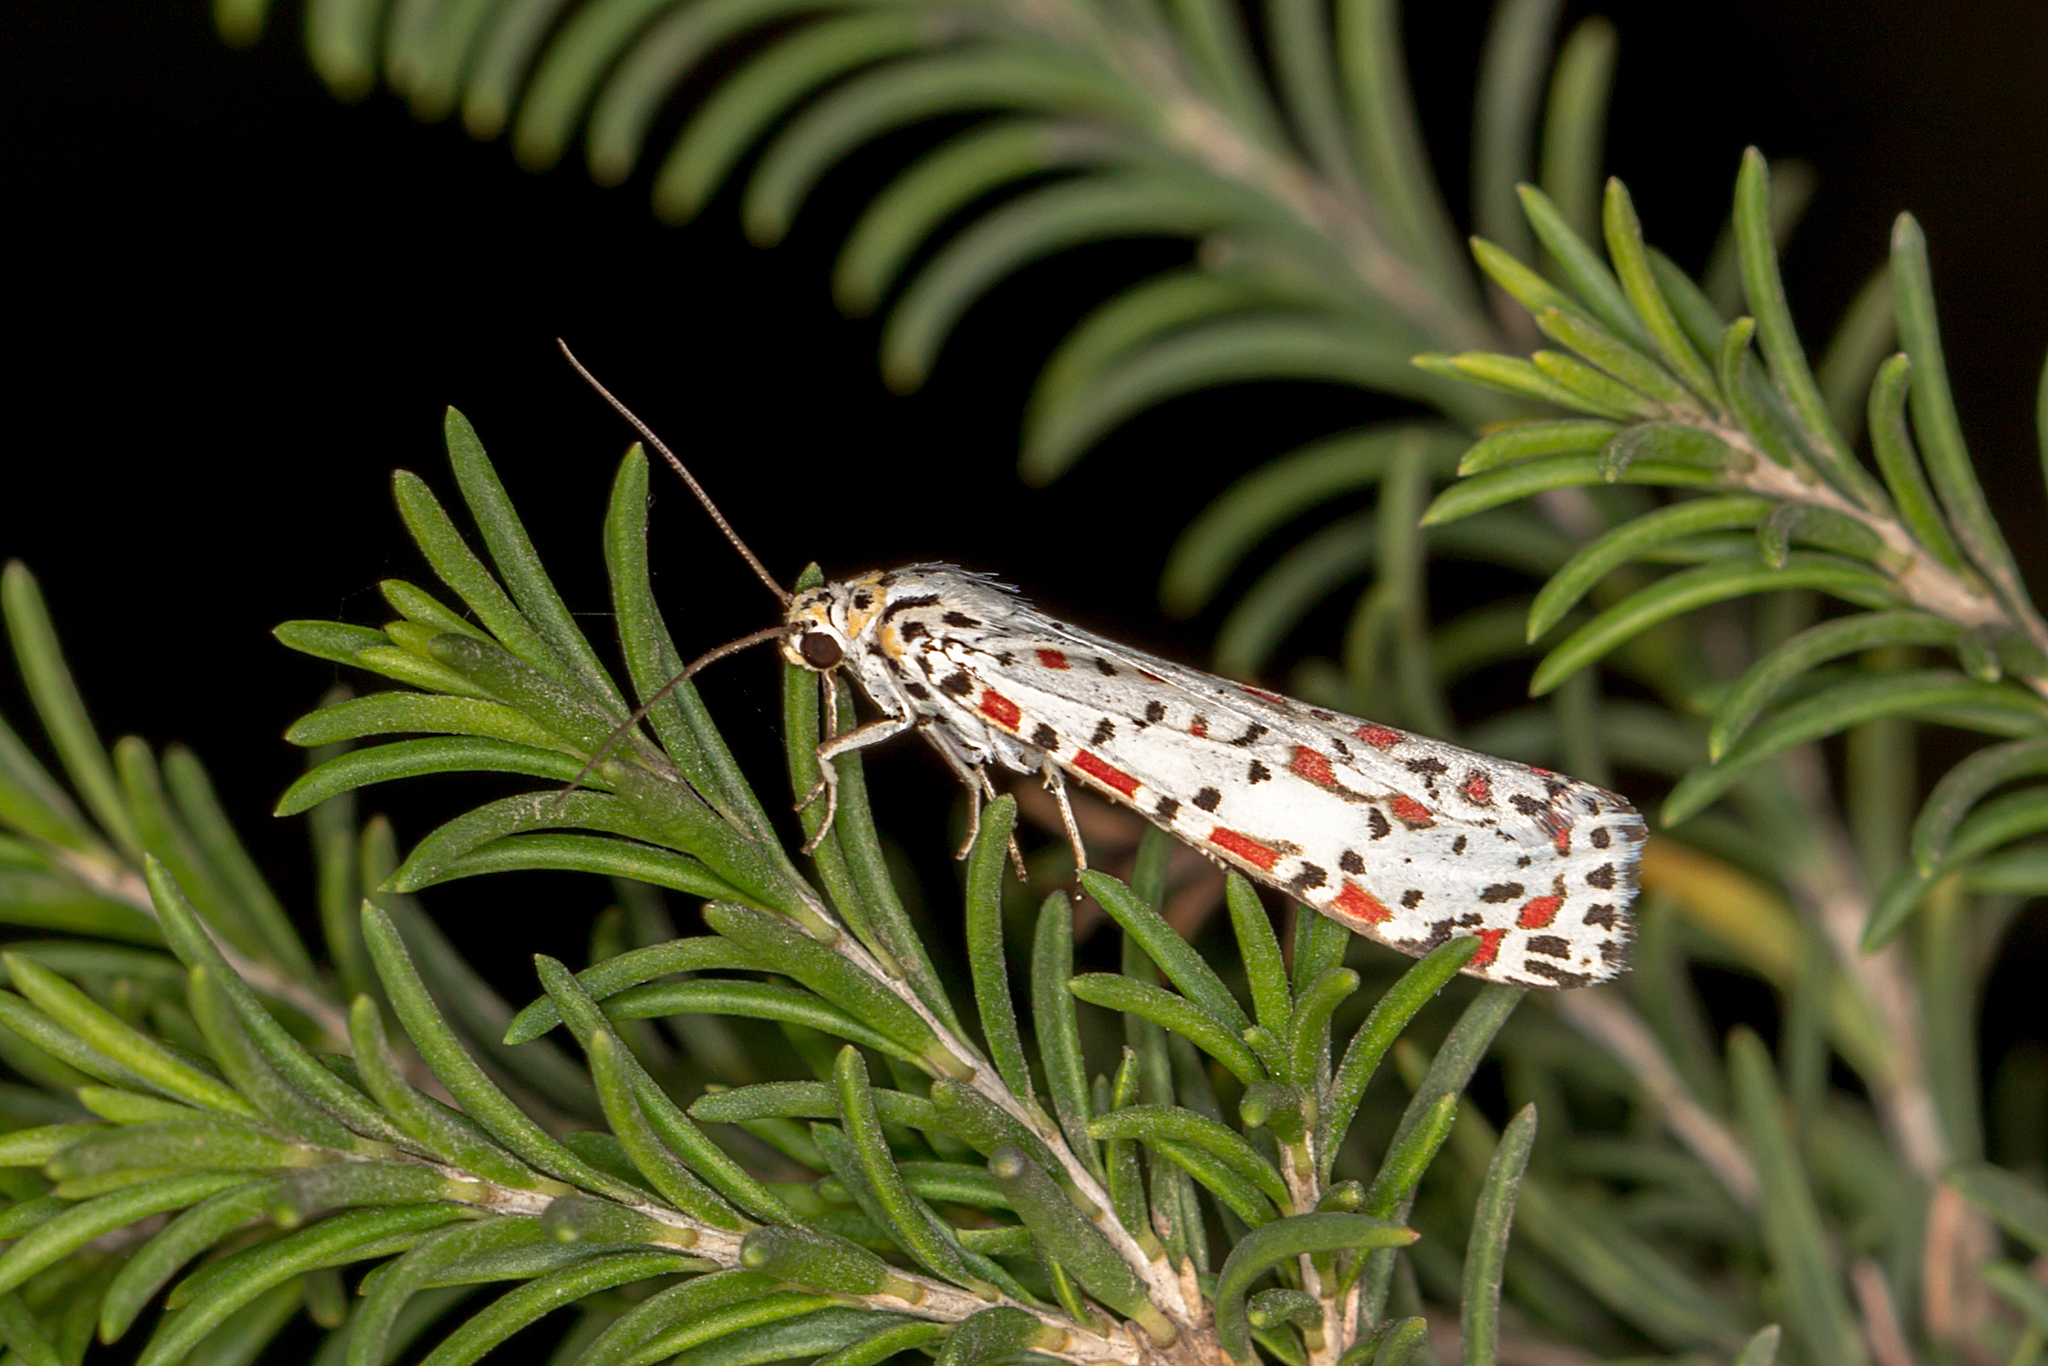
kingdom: Animalia
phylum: Arthropoda
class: Insecta
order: Lepidoptera
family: Erebidae
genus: Utetheisa
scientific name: Utetheisa pulchelloides
